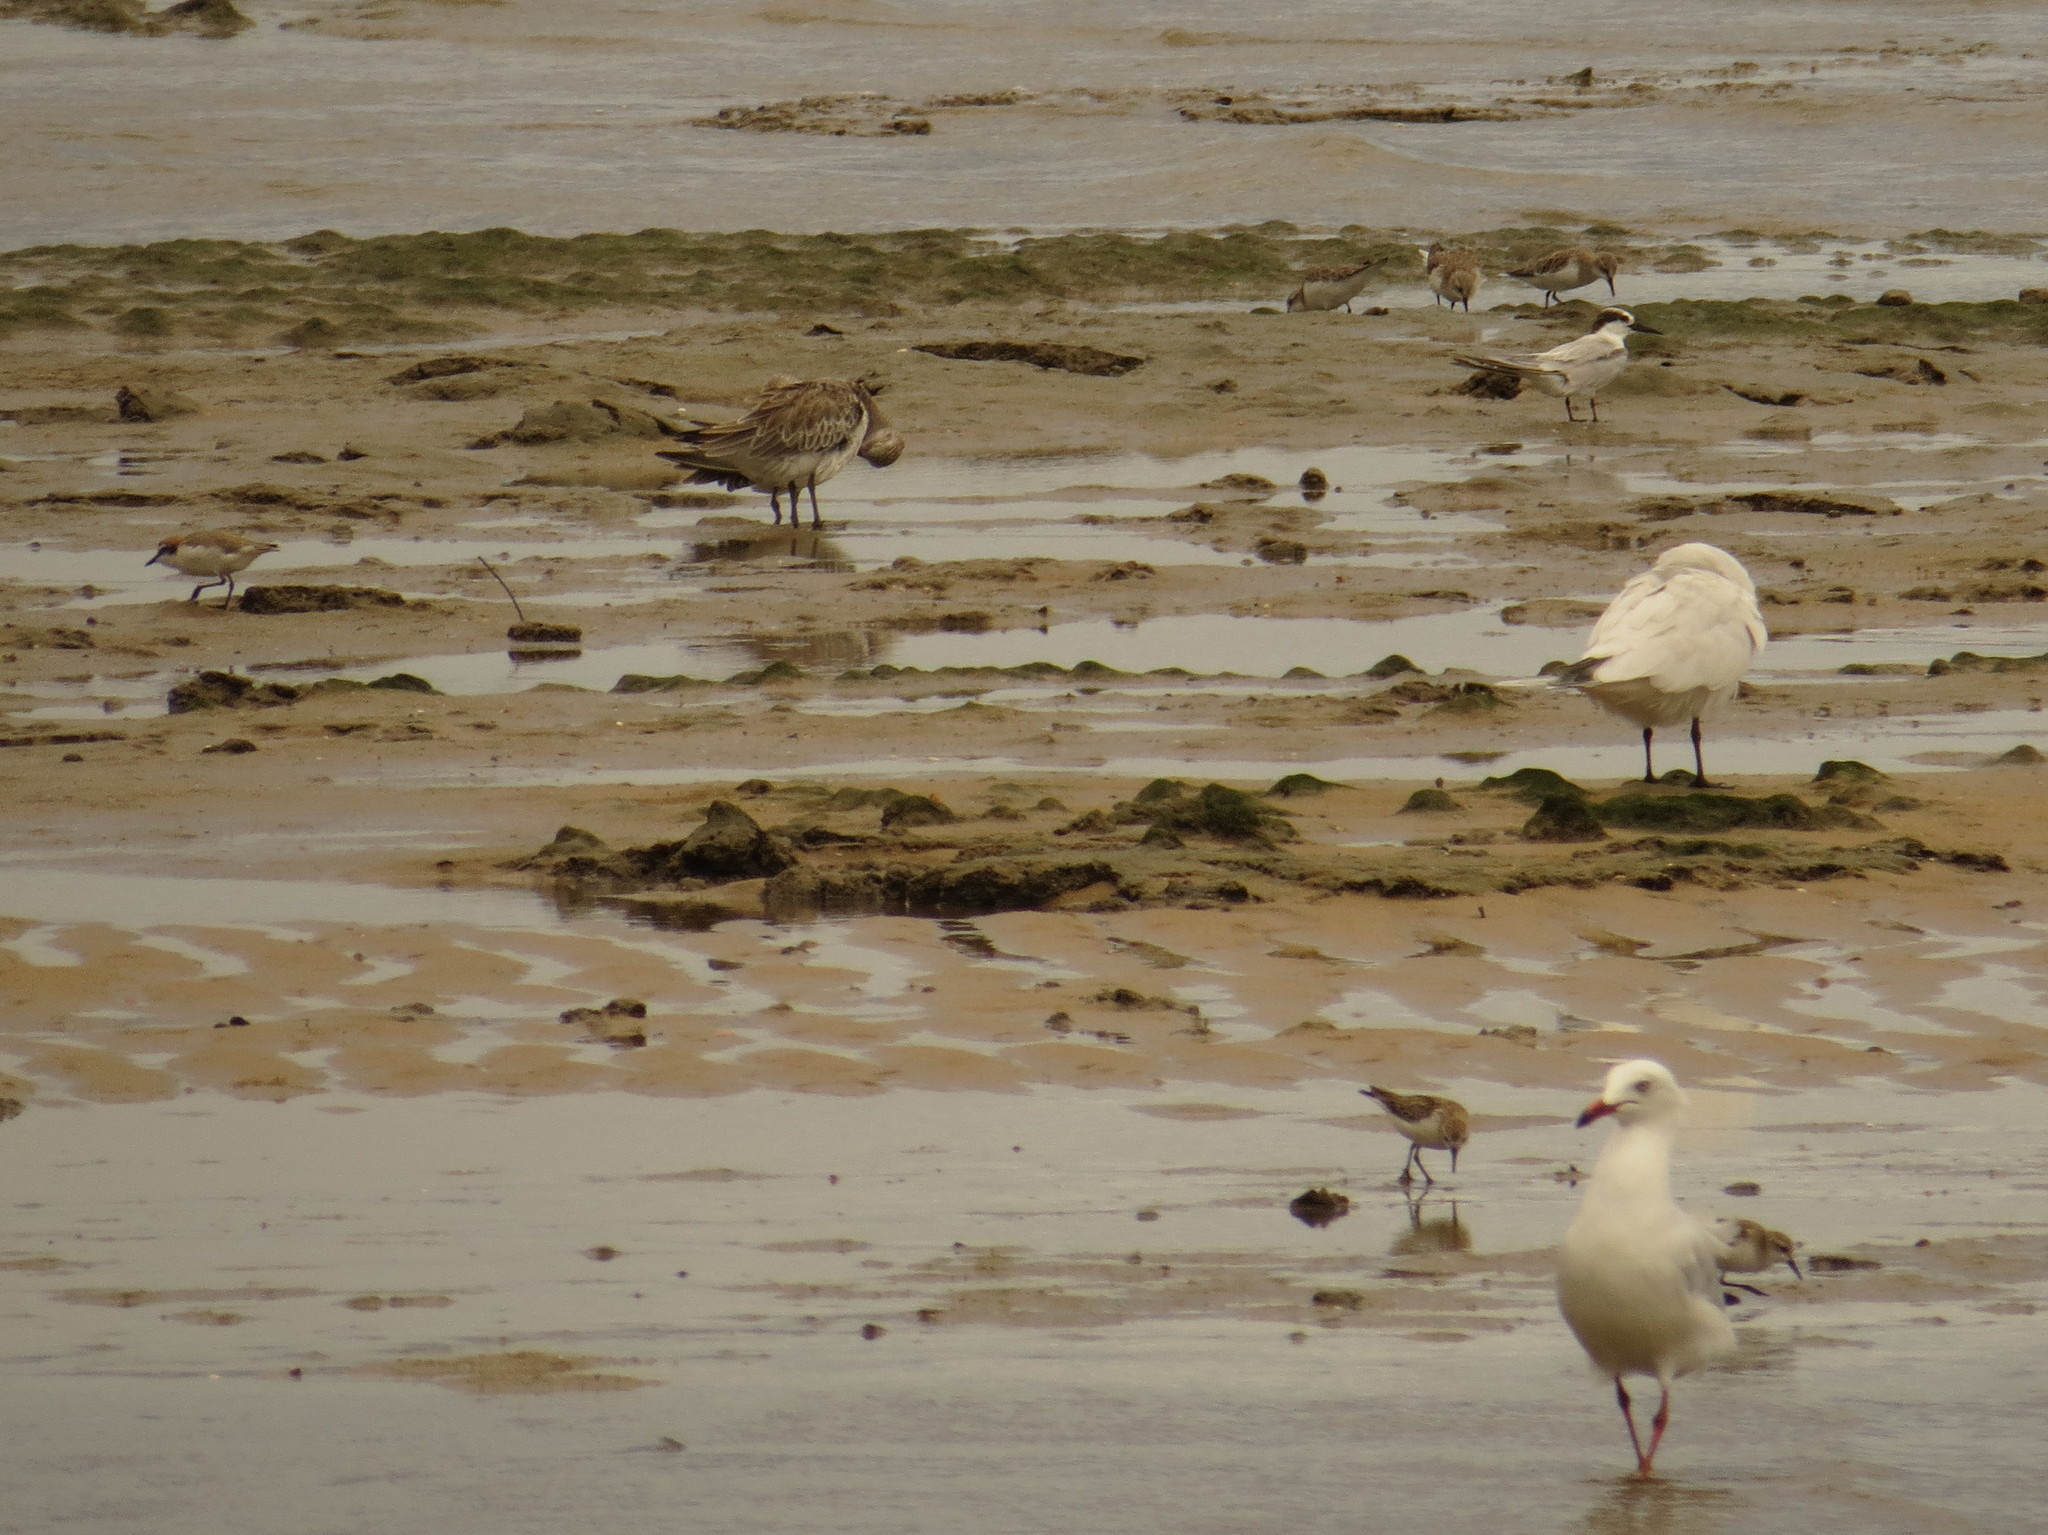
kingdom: Animalia
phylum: Chordata
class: Aves
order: Charadriiformes
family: Scolopacidae
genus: Calidris
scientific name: Calidris ruficollis
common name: Red-necked stint
